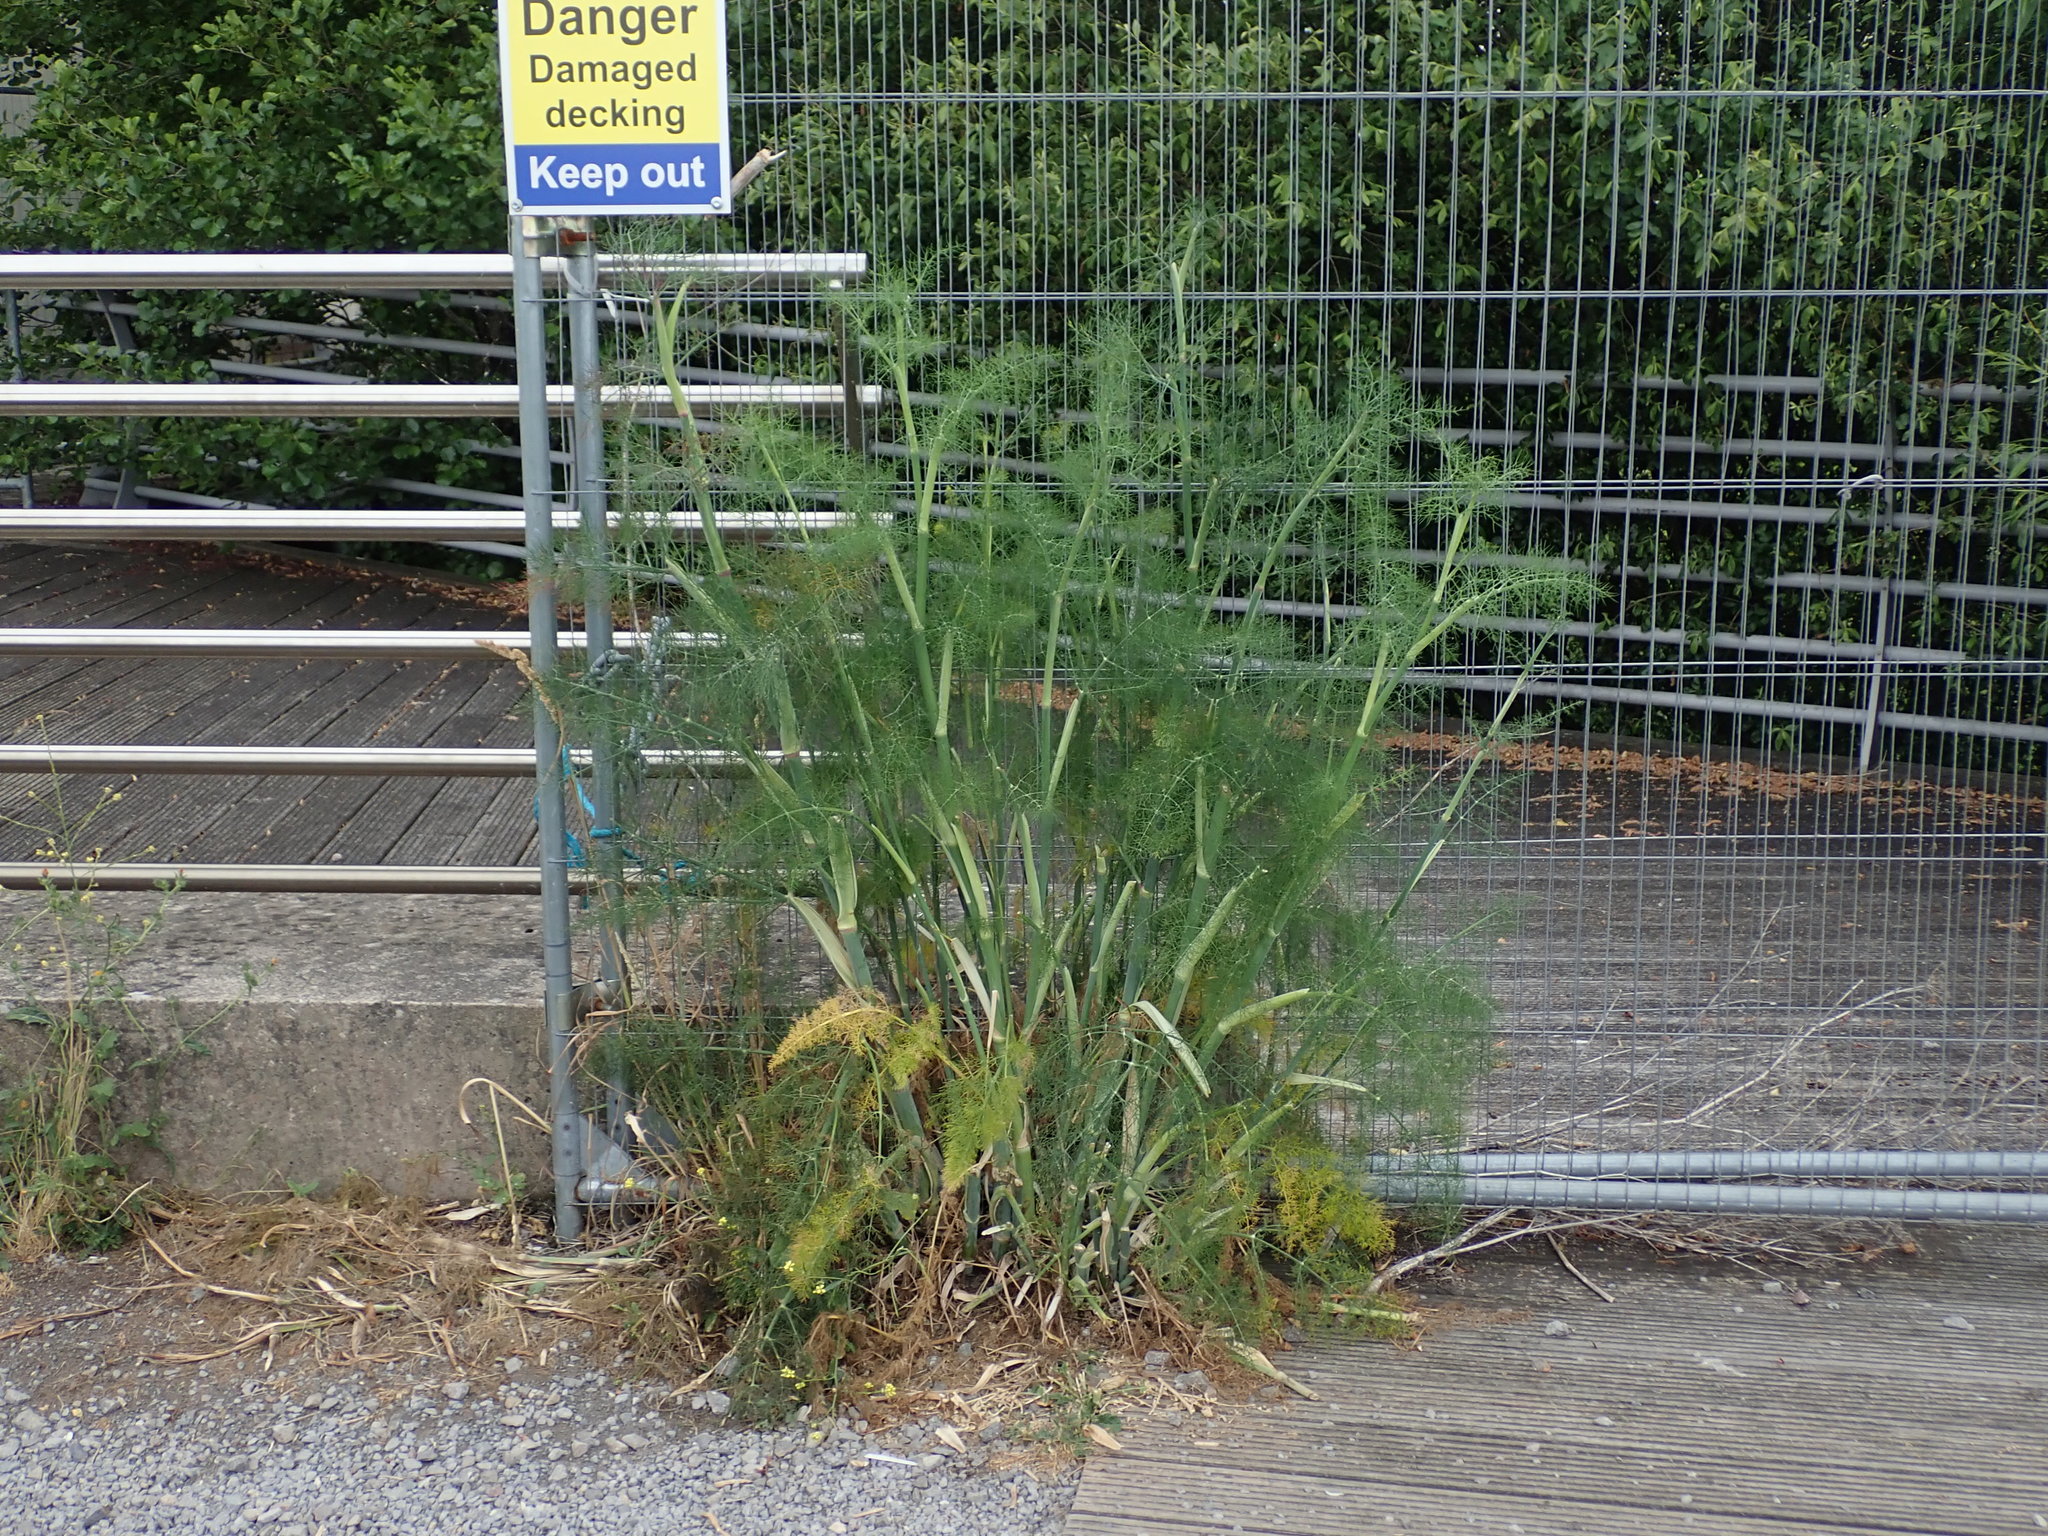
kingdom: Plantae
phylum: Tracheophyta
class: Magnoliopsida
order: Apiales
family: Apiaceae
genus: Foeniculum
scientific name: Foeniculum vulgare
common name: Fennel
